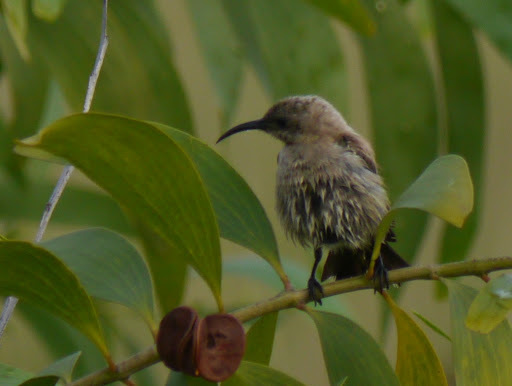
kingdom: Animalia
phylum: Chordata
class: Aves
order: Passeriformes
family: Nectariniidae
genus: Chalcomitra
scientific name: Chalcomitra fuliginosa
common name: Carmelite sunbird
